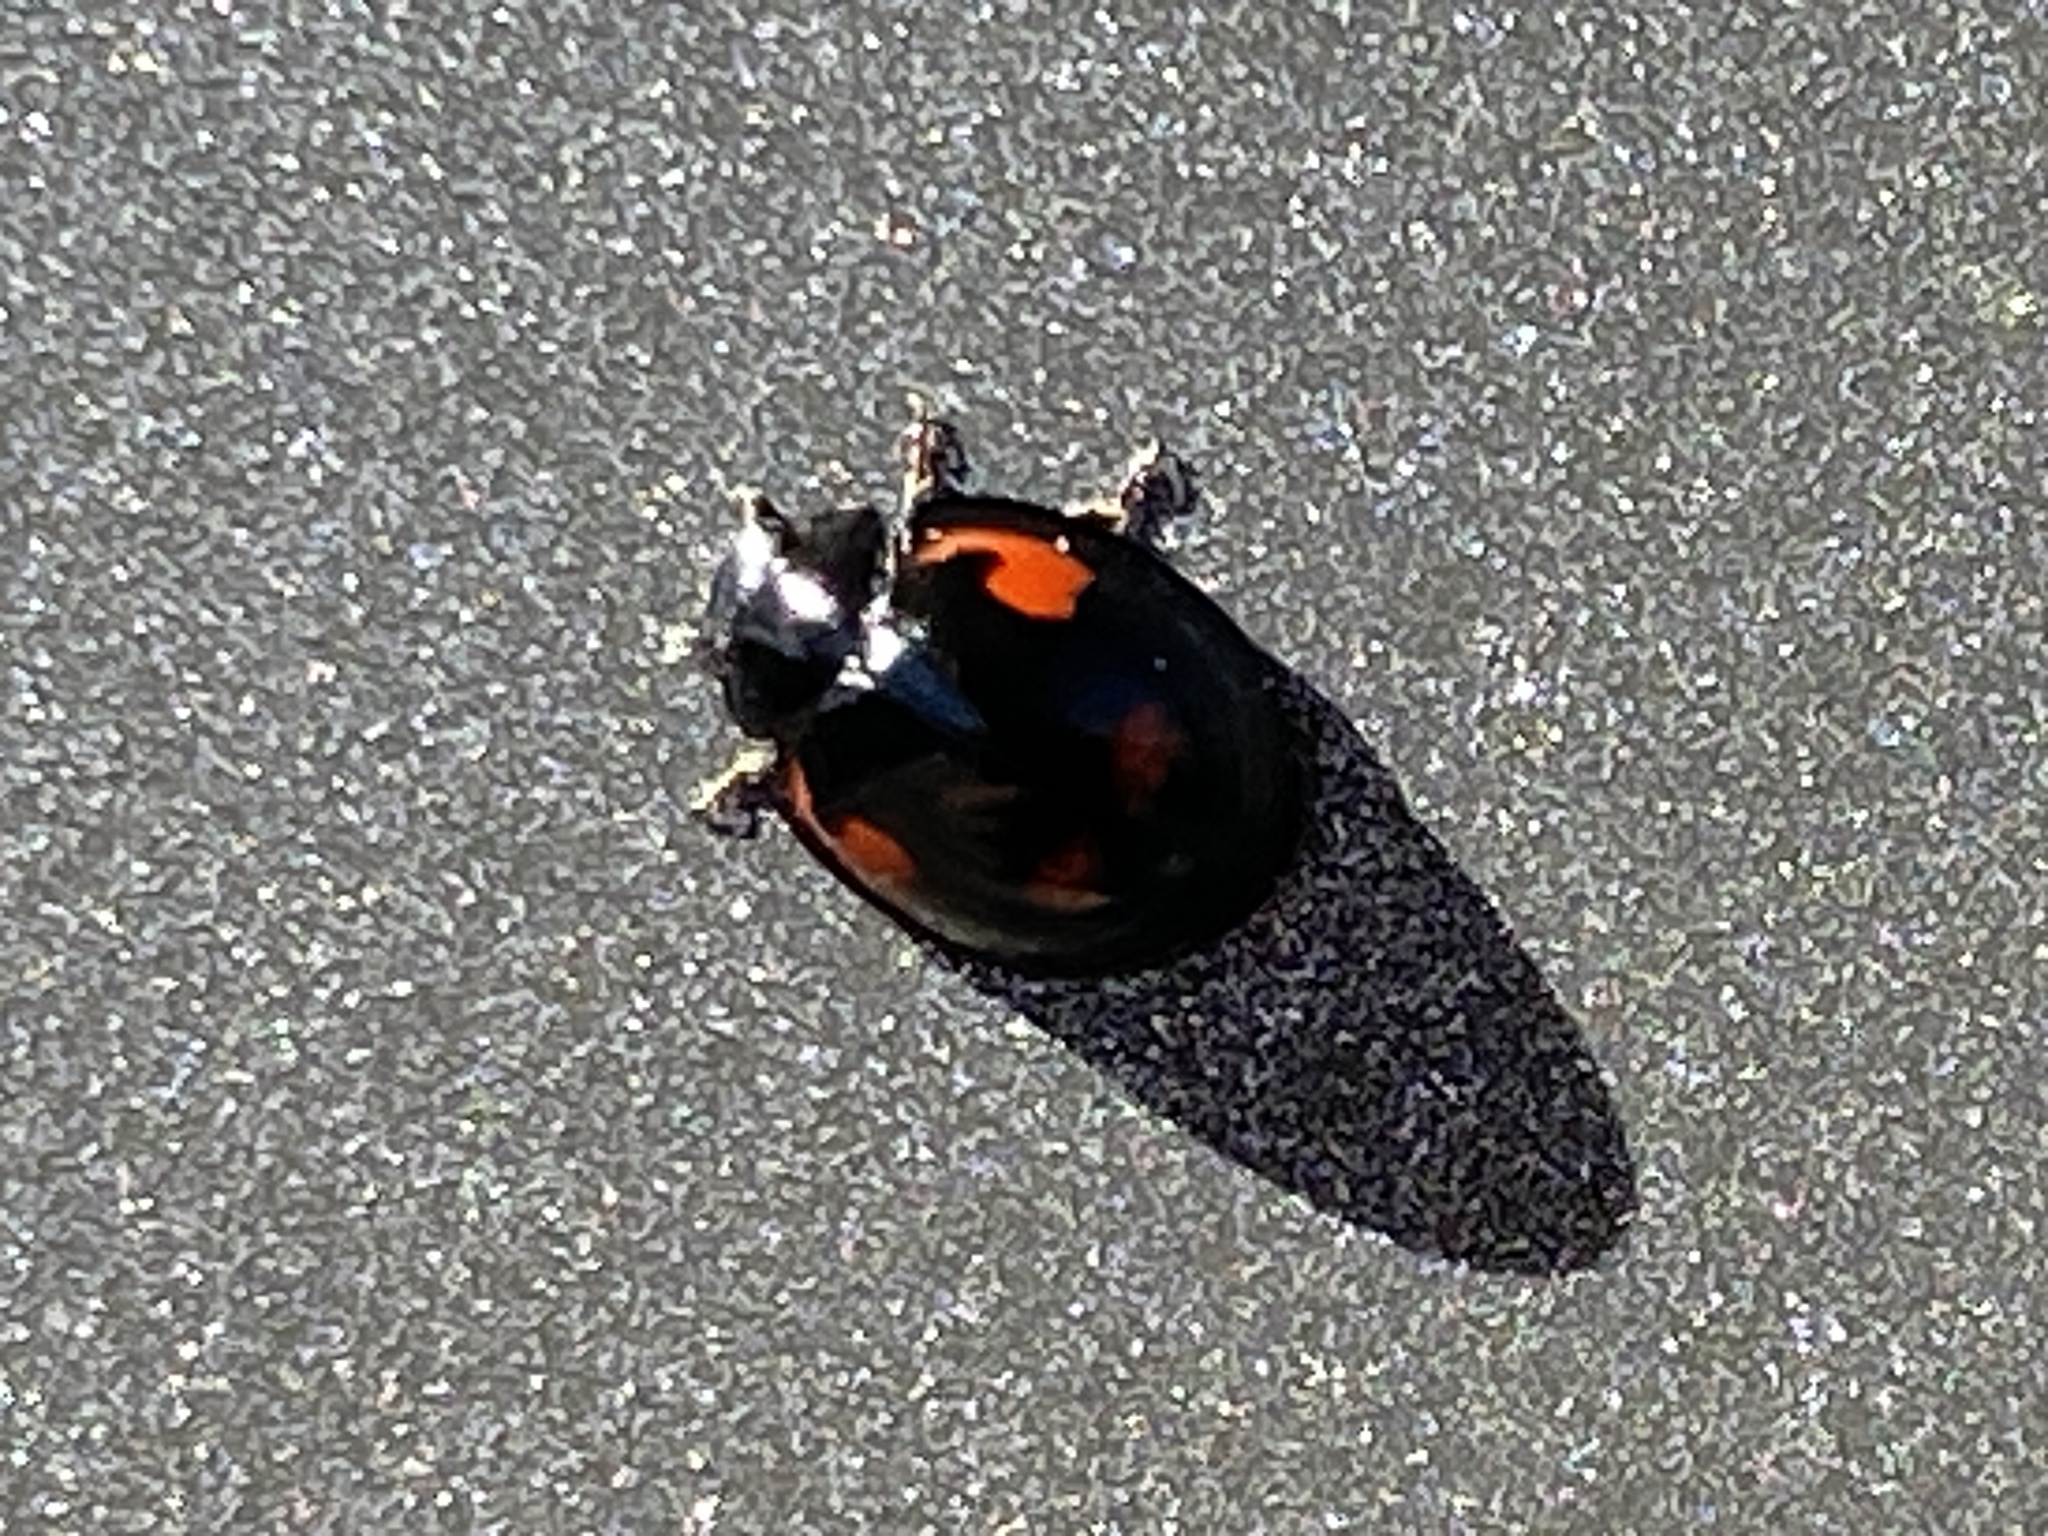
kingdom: Animalia
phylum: Arthropoda
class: Insecta
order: Coleoptera
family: Coccinellidae
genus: Brumus
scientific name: Brumus quadripustulatus
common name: Ladybird beetle
